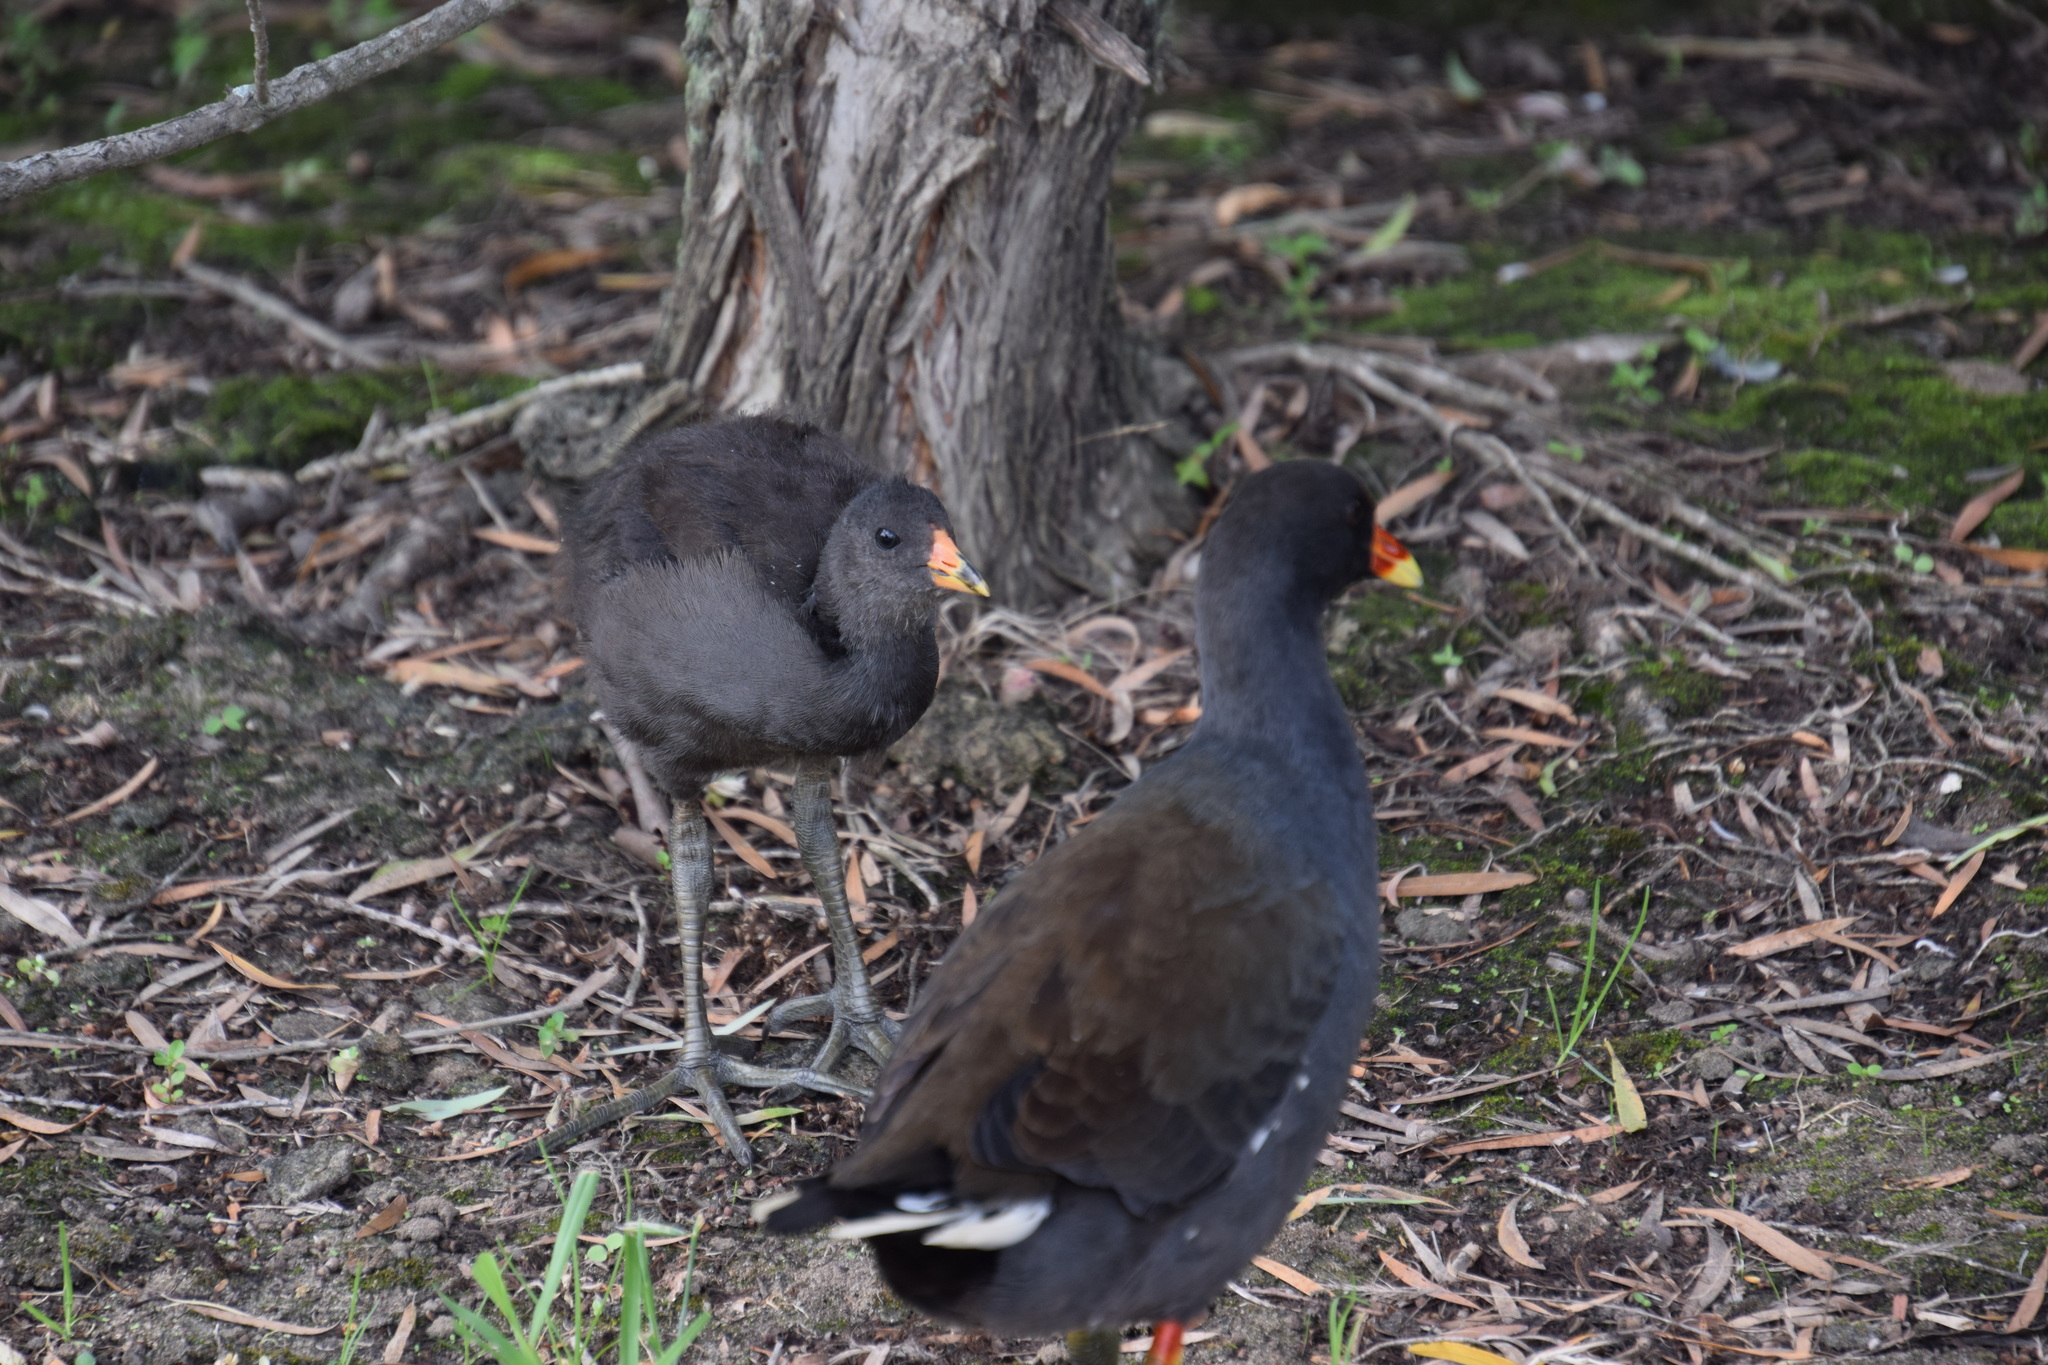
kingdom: Animalia
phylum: Chordata
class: Aves
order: Gruiformes
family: Rallidae
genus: Gallinula
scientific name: Gallinula tenebrosa
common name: Dusky moorhen
